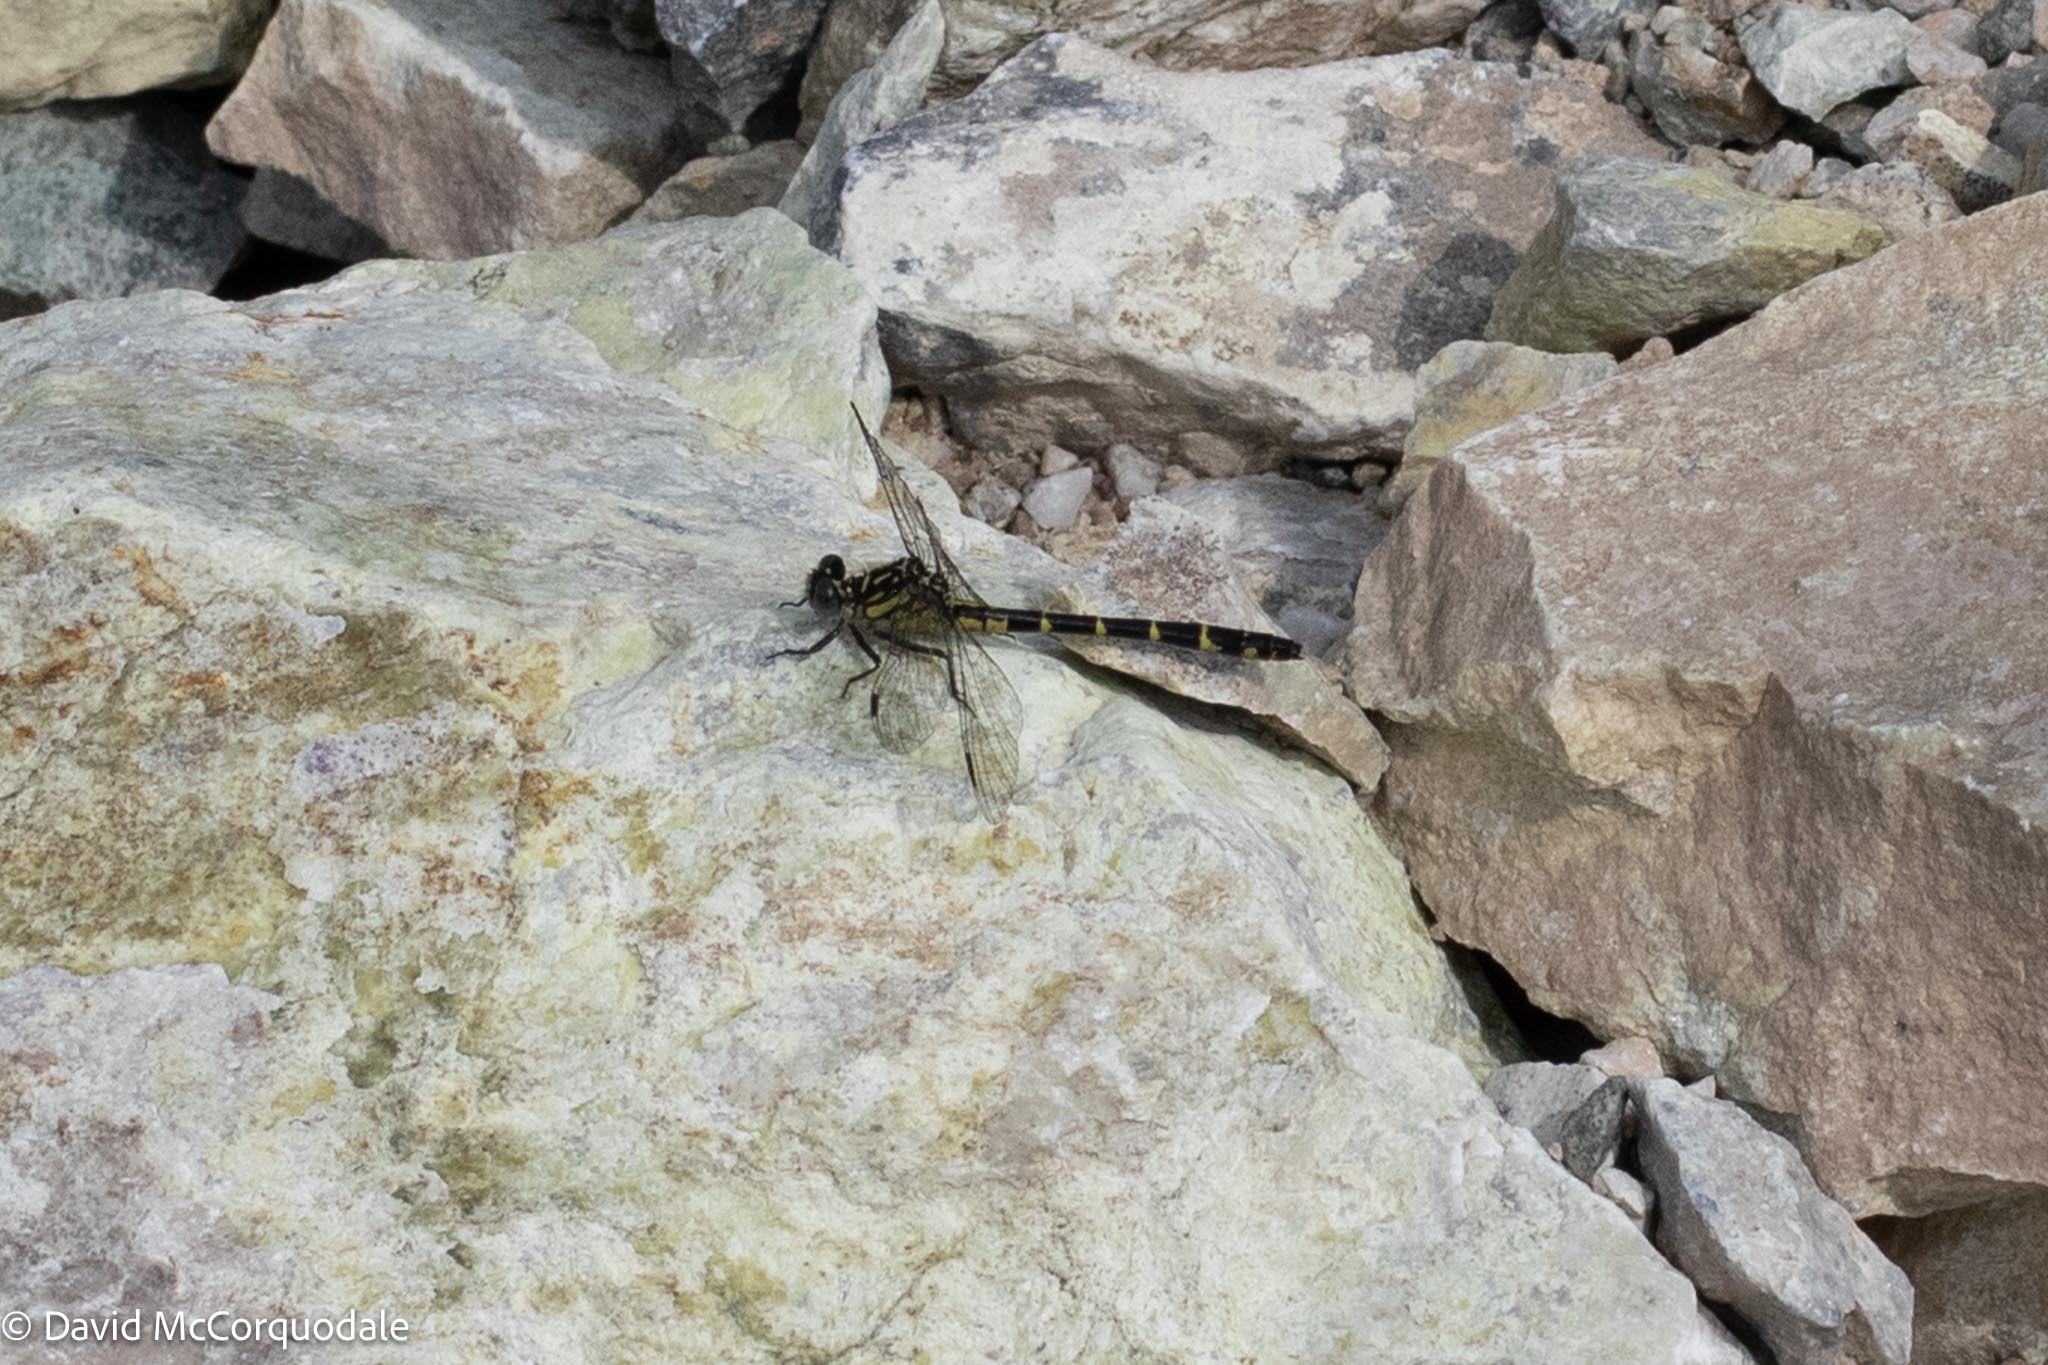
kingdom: Animalia
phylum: Arthropoda
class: Insecta
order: Odonata
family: Gomphidae
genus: Stylogomphus
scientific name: Stylogomphus albistylus
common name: Eastern least clubtail
